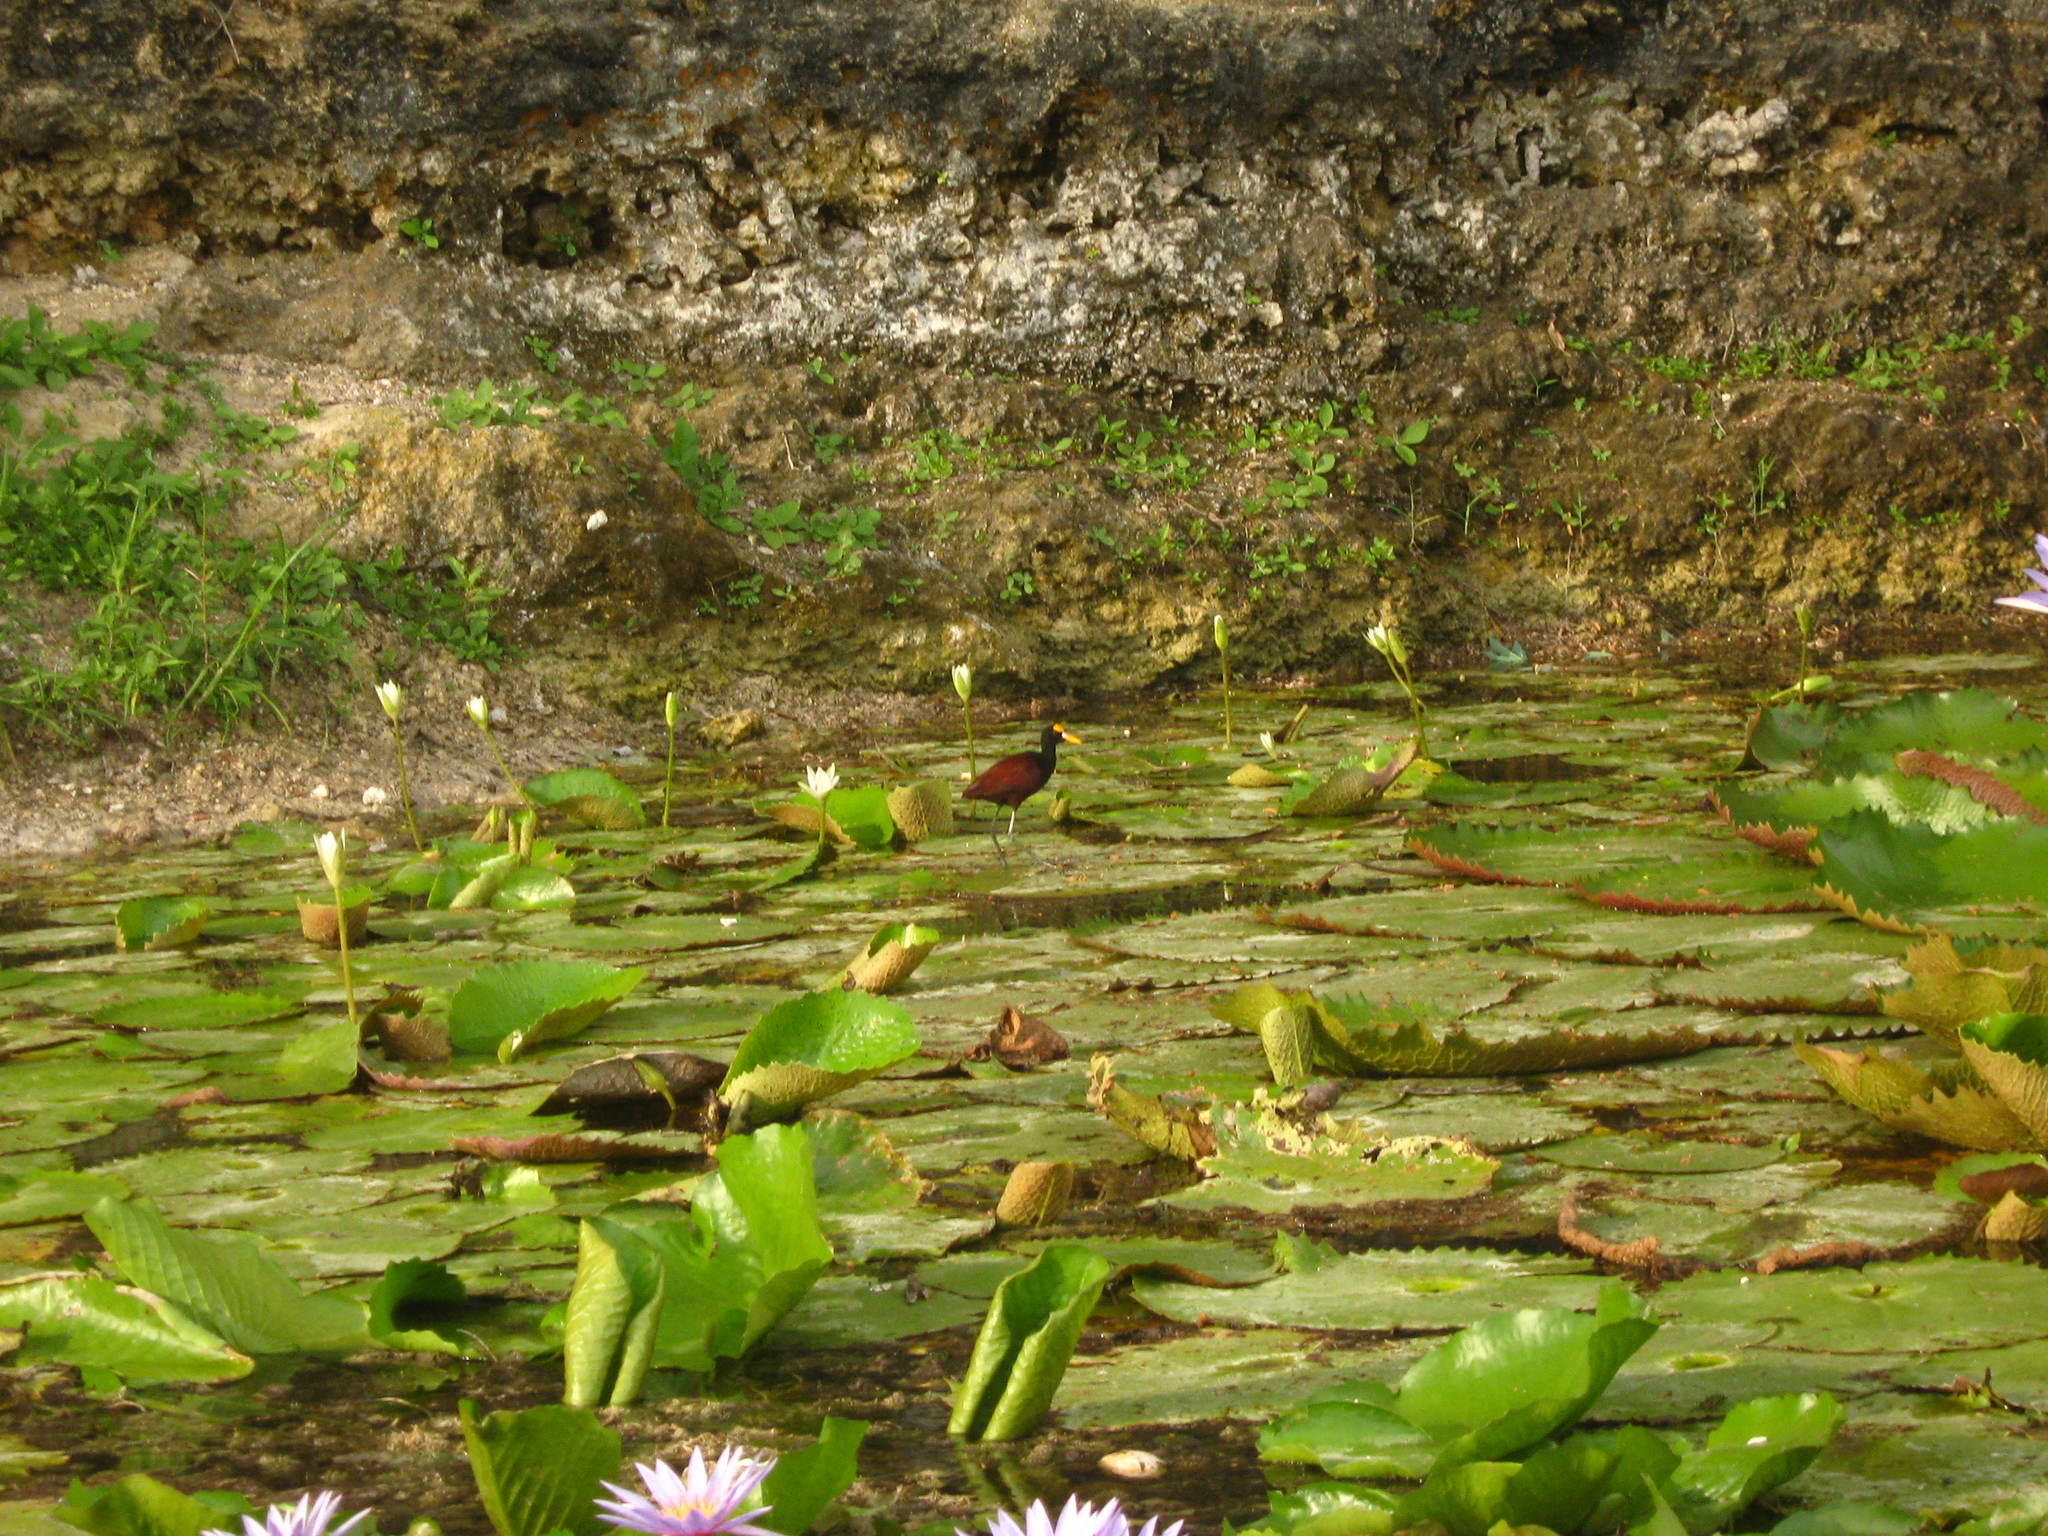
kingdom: Animalia
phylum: Chordata
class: Aves
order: Charadriiformes
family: Jacanidae
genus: Jacana
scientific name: Jacana spinosa
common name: Northern jacana
